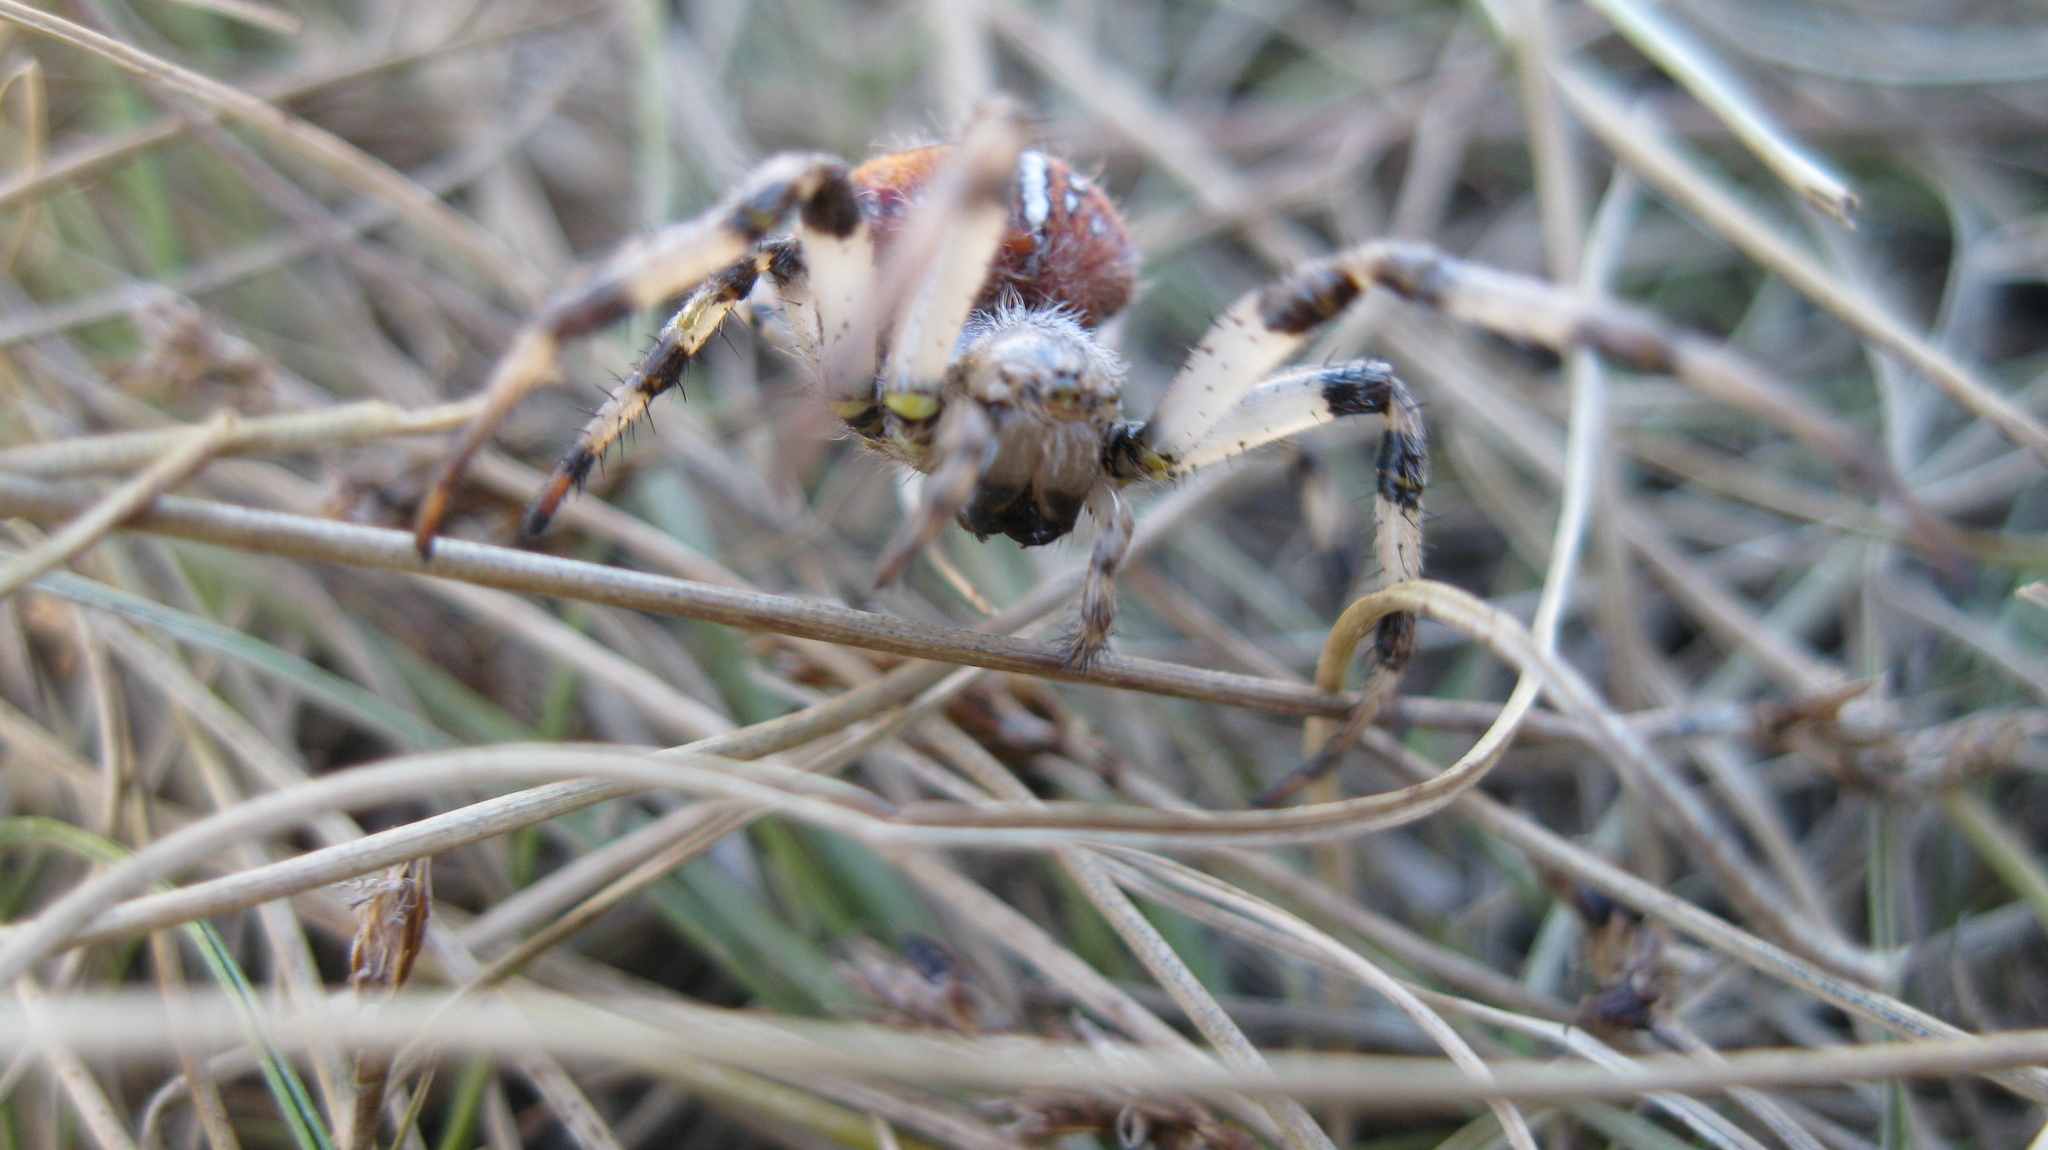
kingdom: Animalia
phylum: Arthropoda
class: Arachnida
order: Araneae
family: Araneidae
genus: Araneus
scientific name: Araneus quadratus
